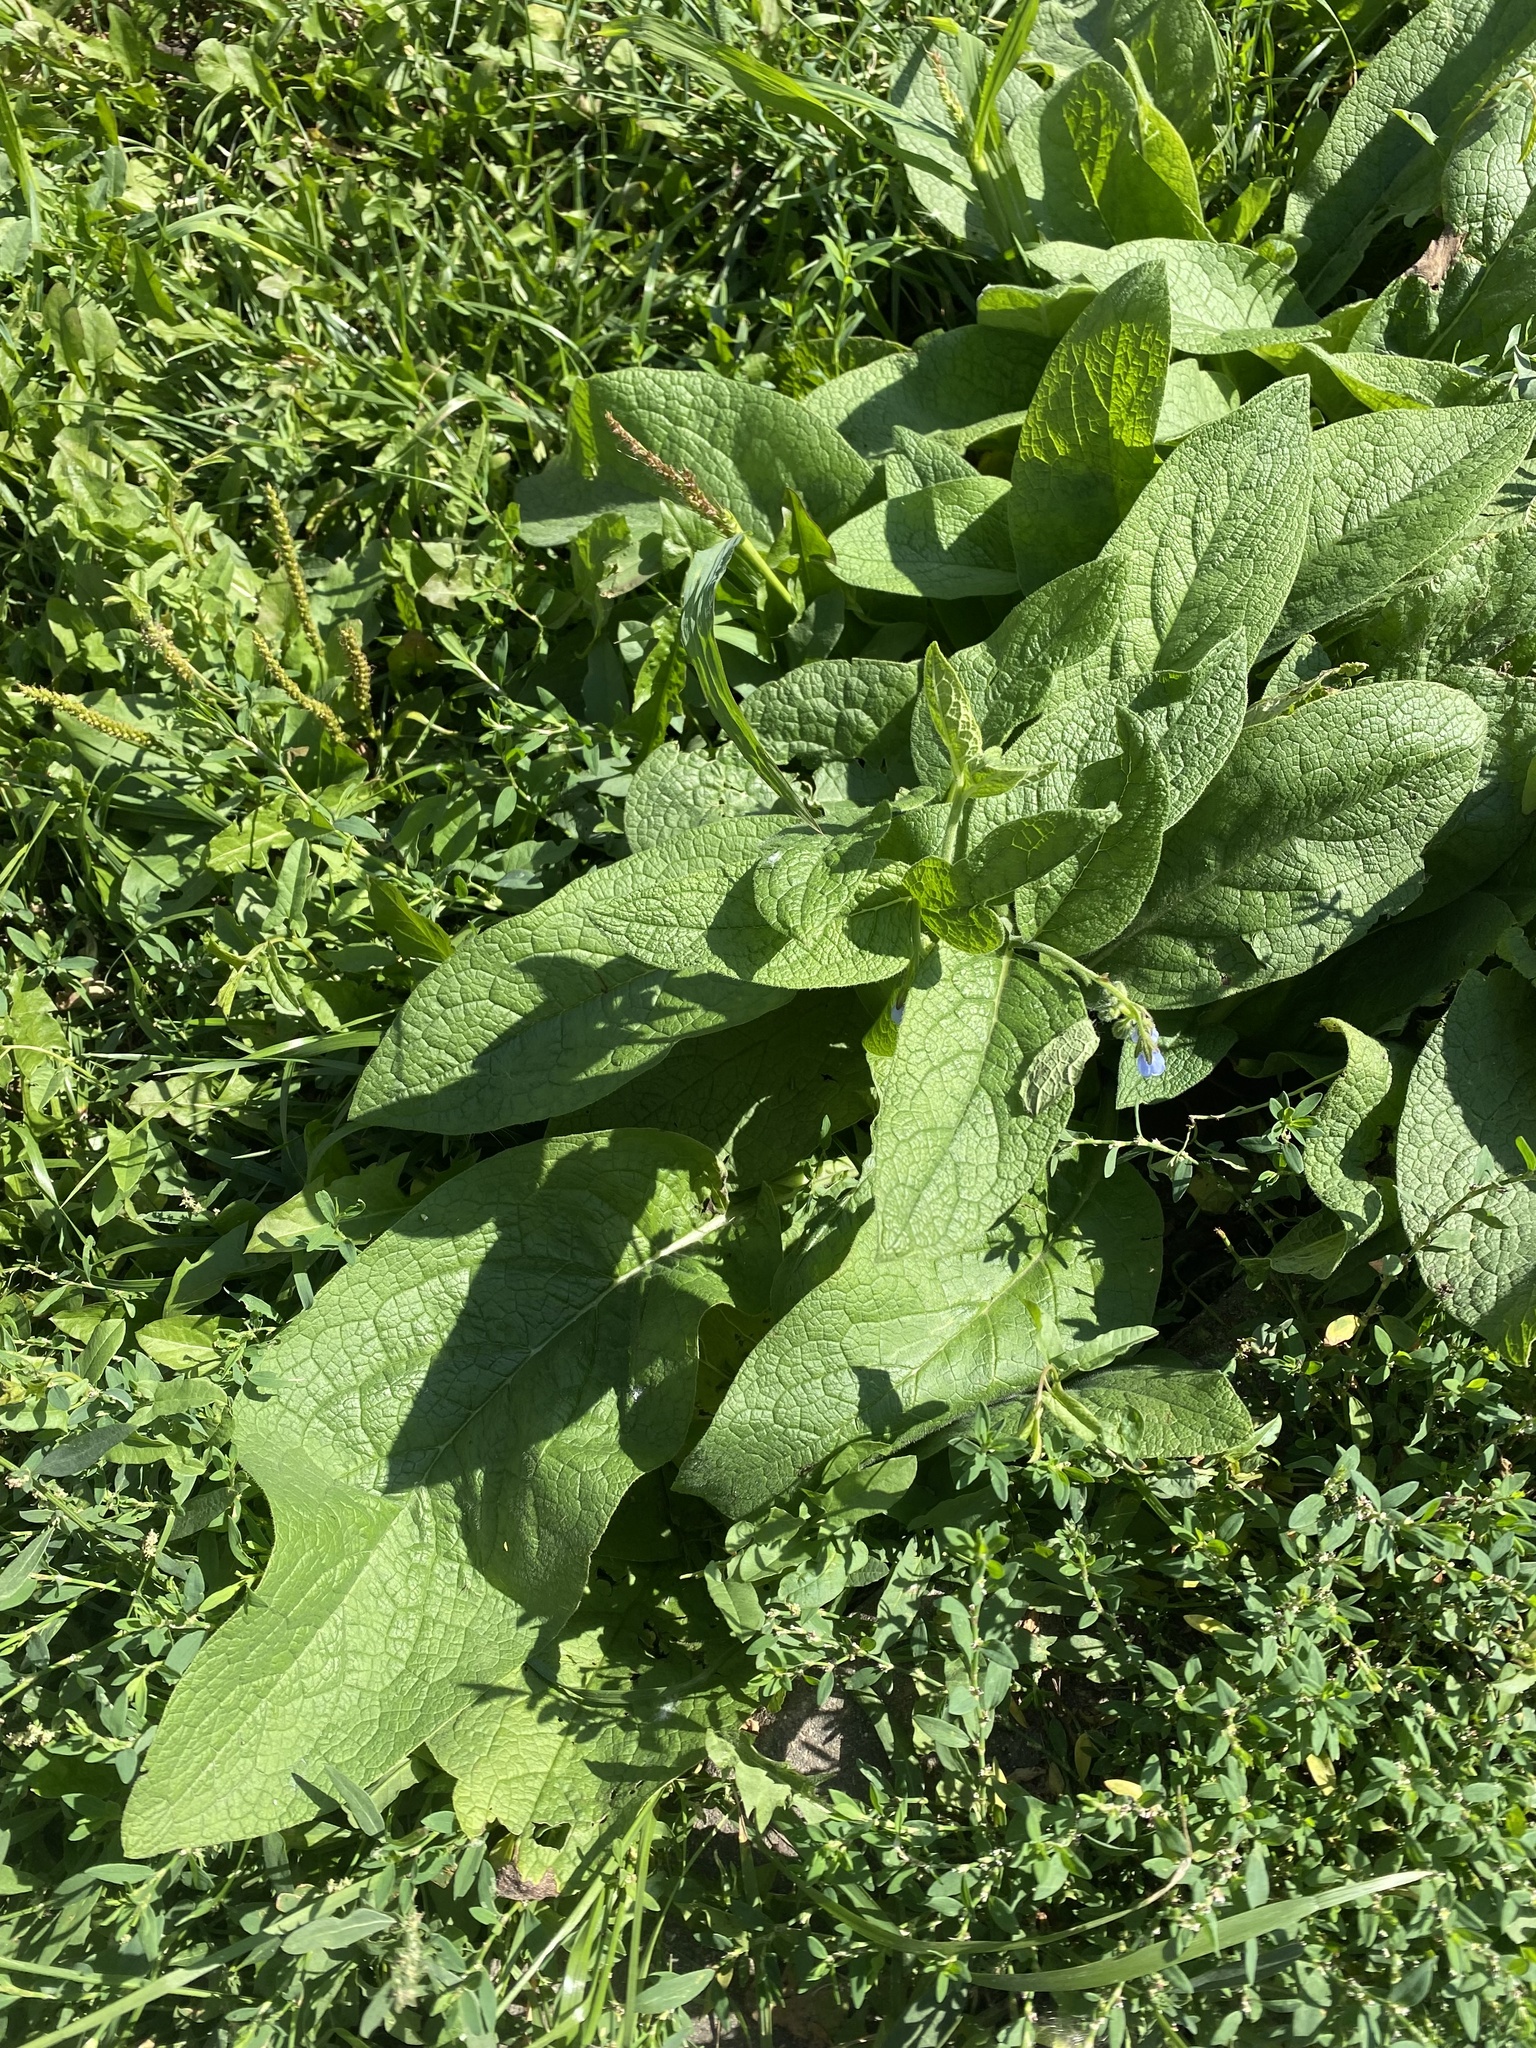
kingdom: Plantae
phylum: Tracheophyta
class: Magnoliopsida
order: Boraginales
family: Boraginaceae
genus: Symphytum
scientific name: Symphytum caucasicum
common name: Caucasian comfrey
